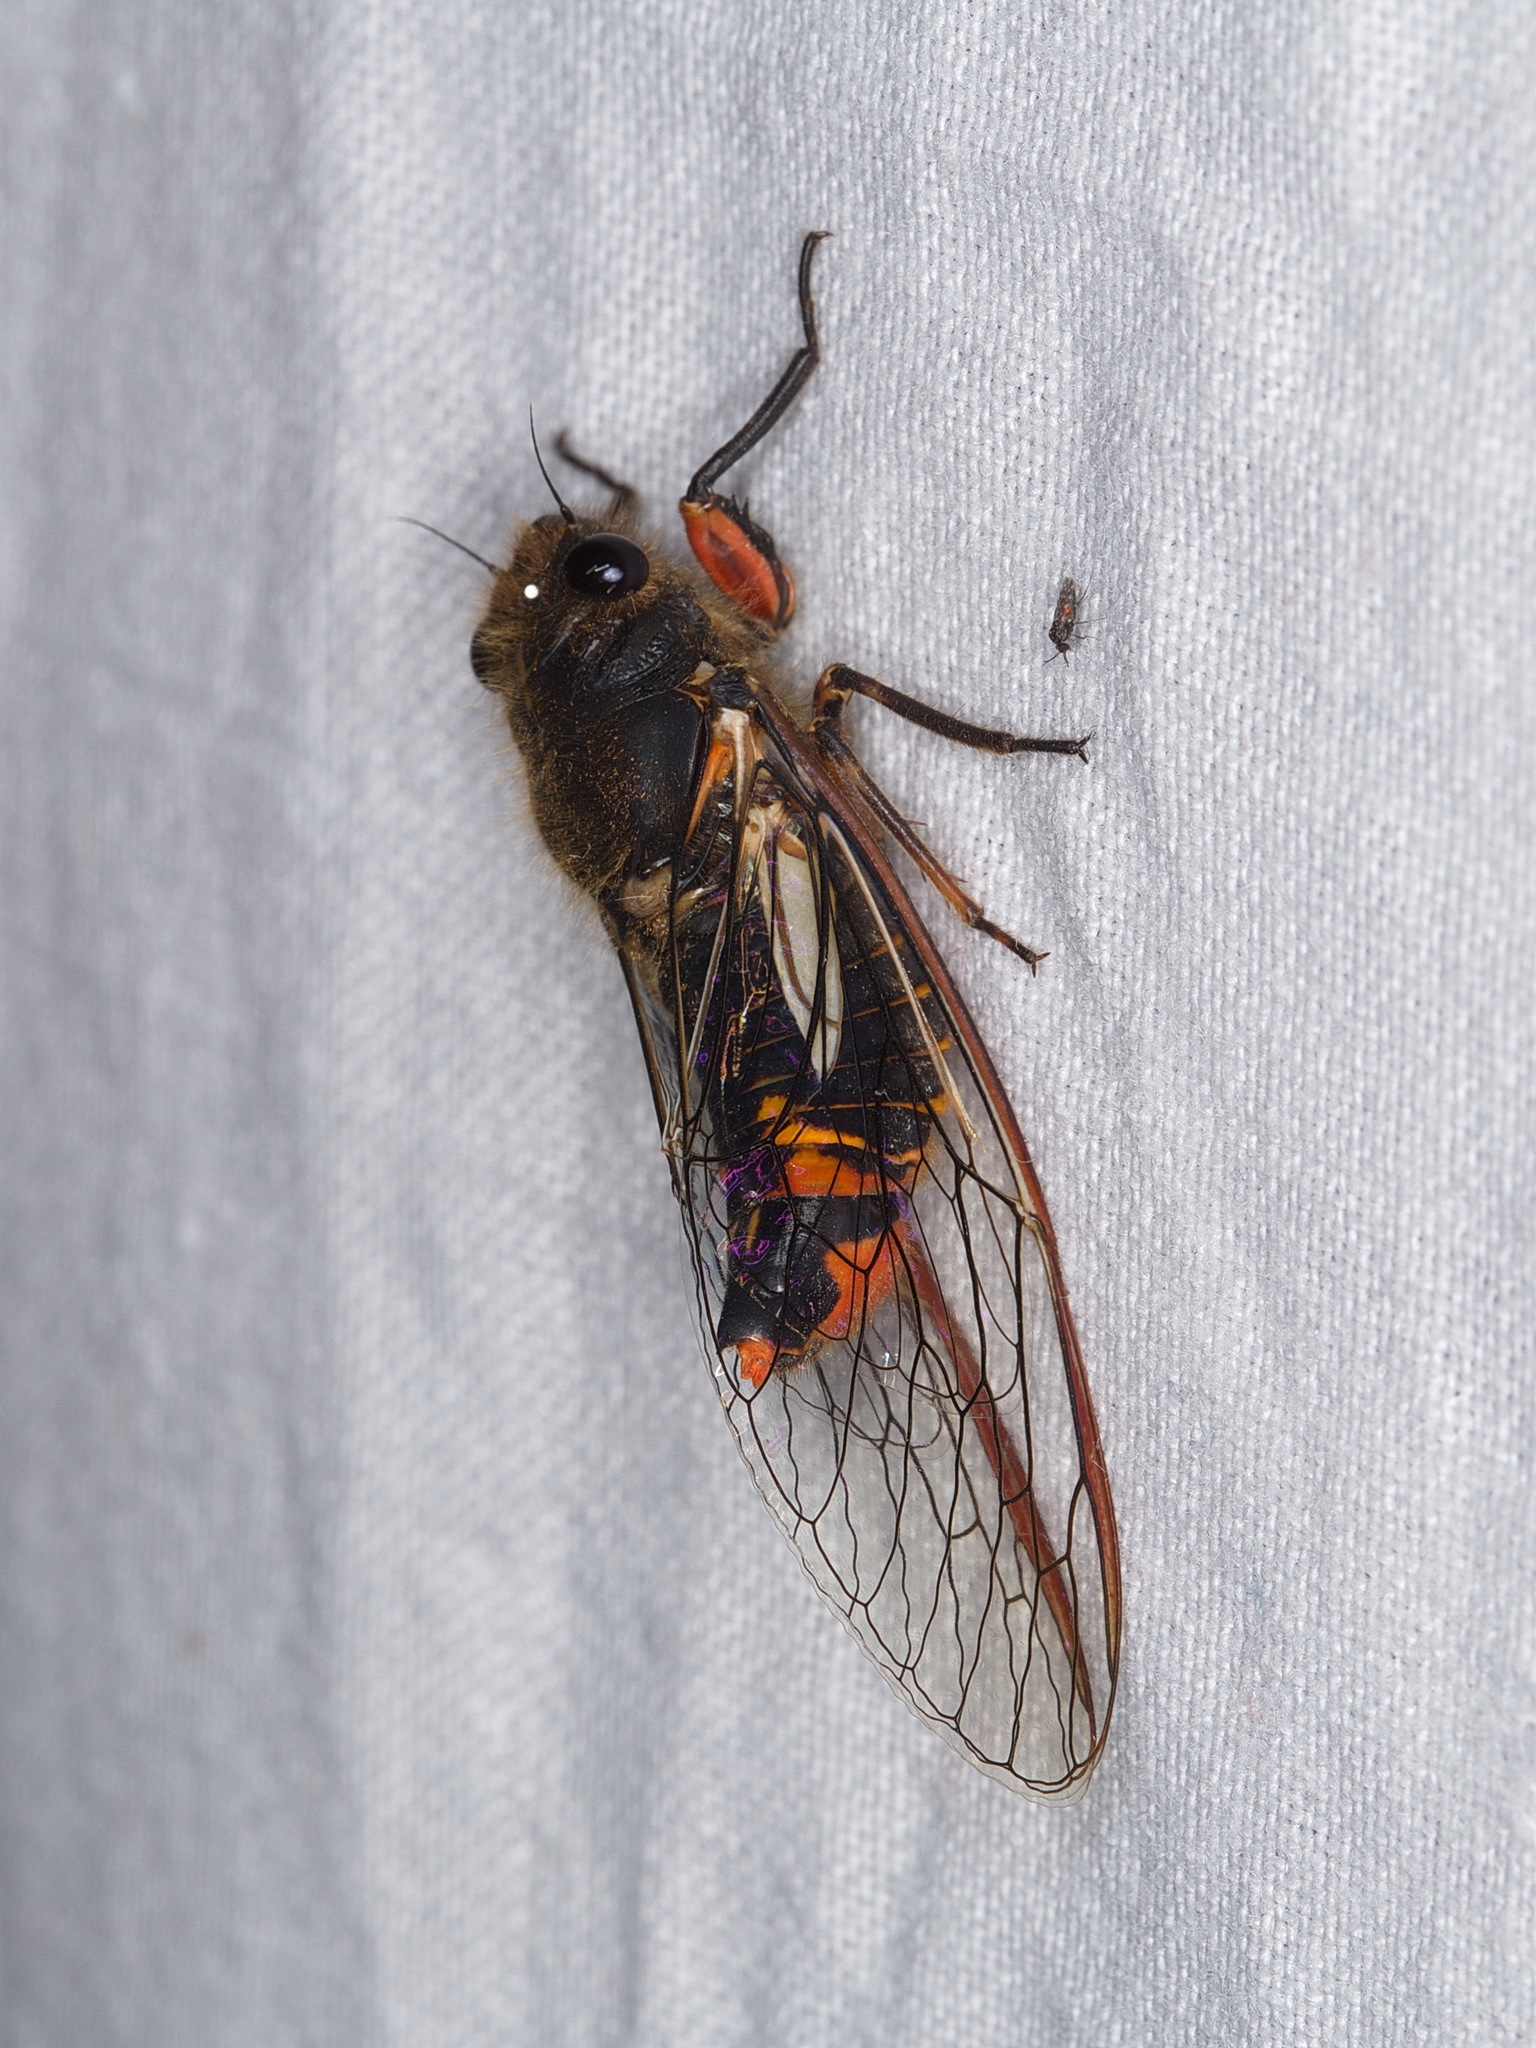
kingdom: Animalia
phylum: Arthropoda
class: Insecta
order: Hemiptera
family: Cicadidae
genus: Yoyetta
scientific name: Yoyetta abdominalis
